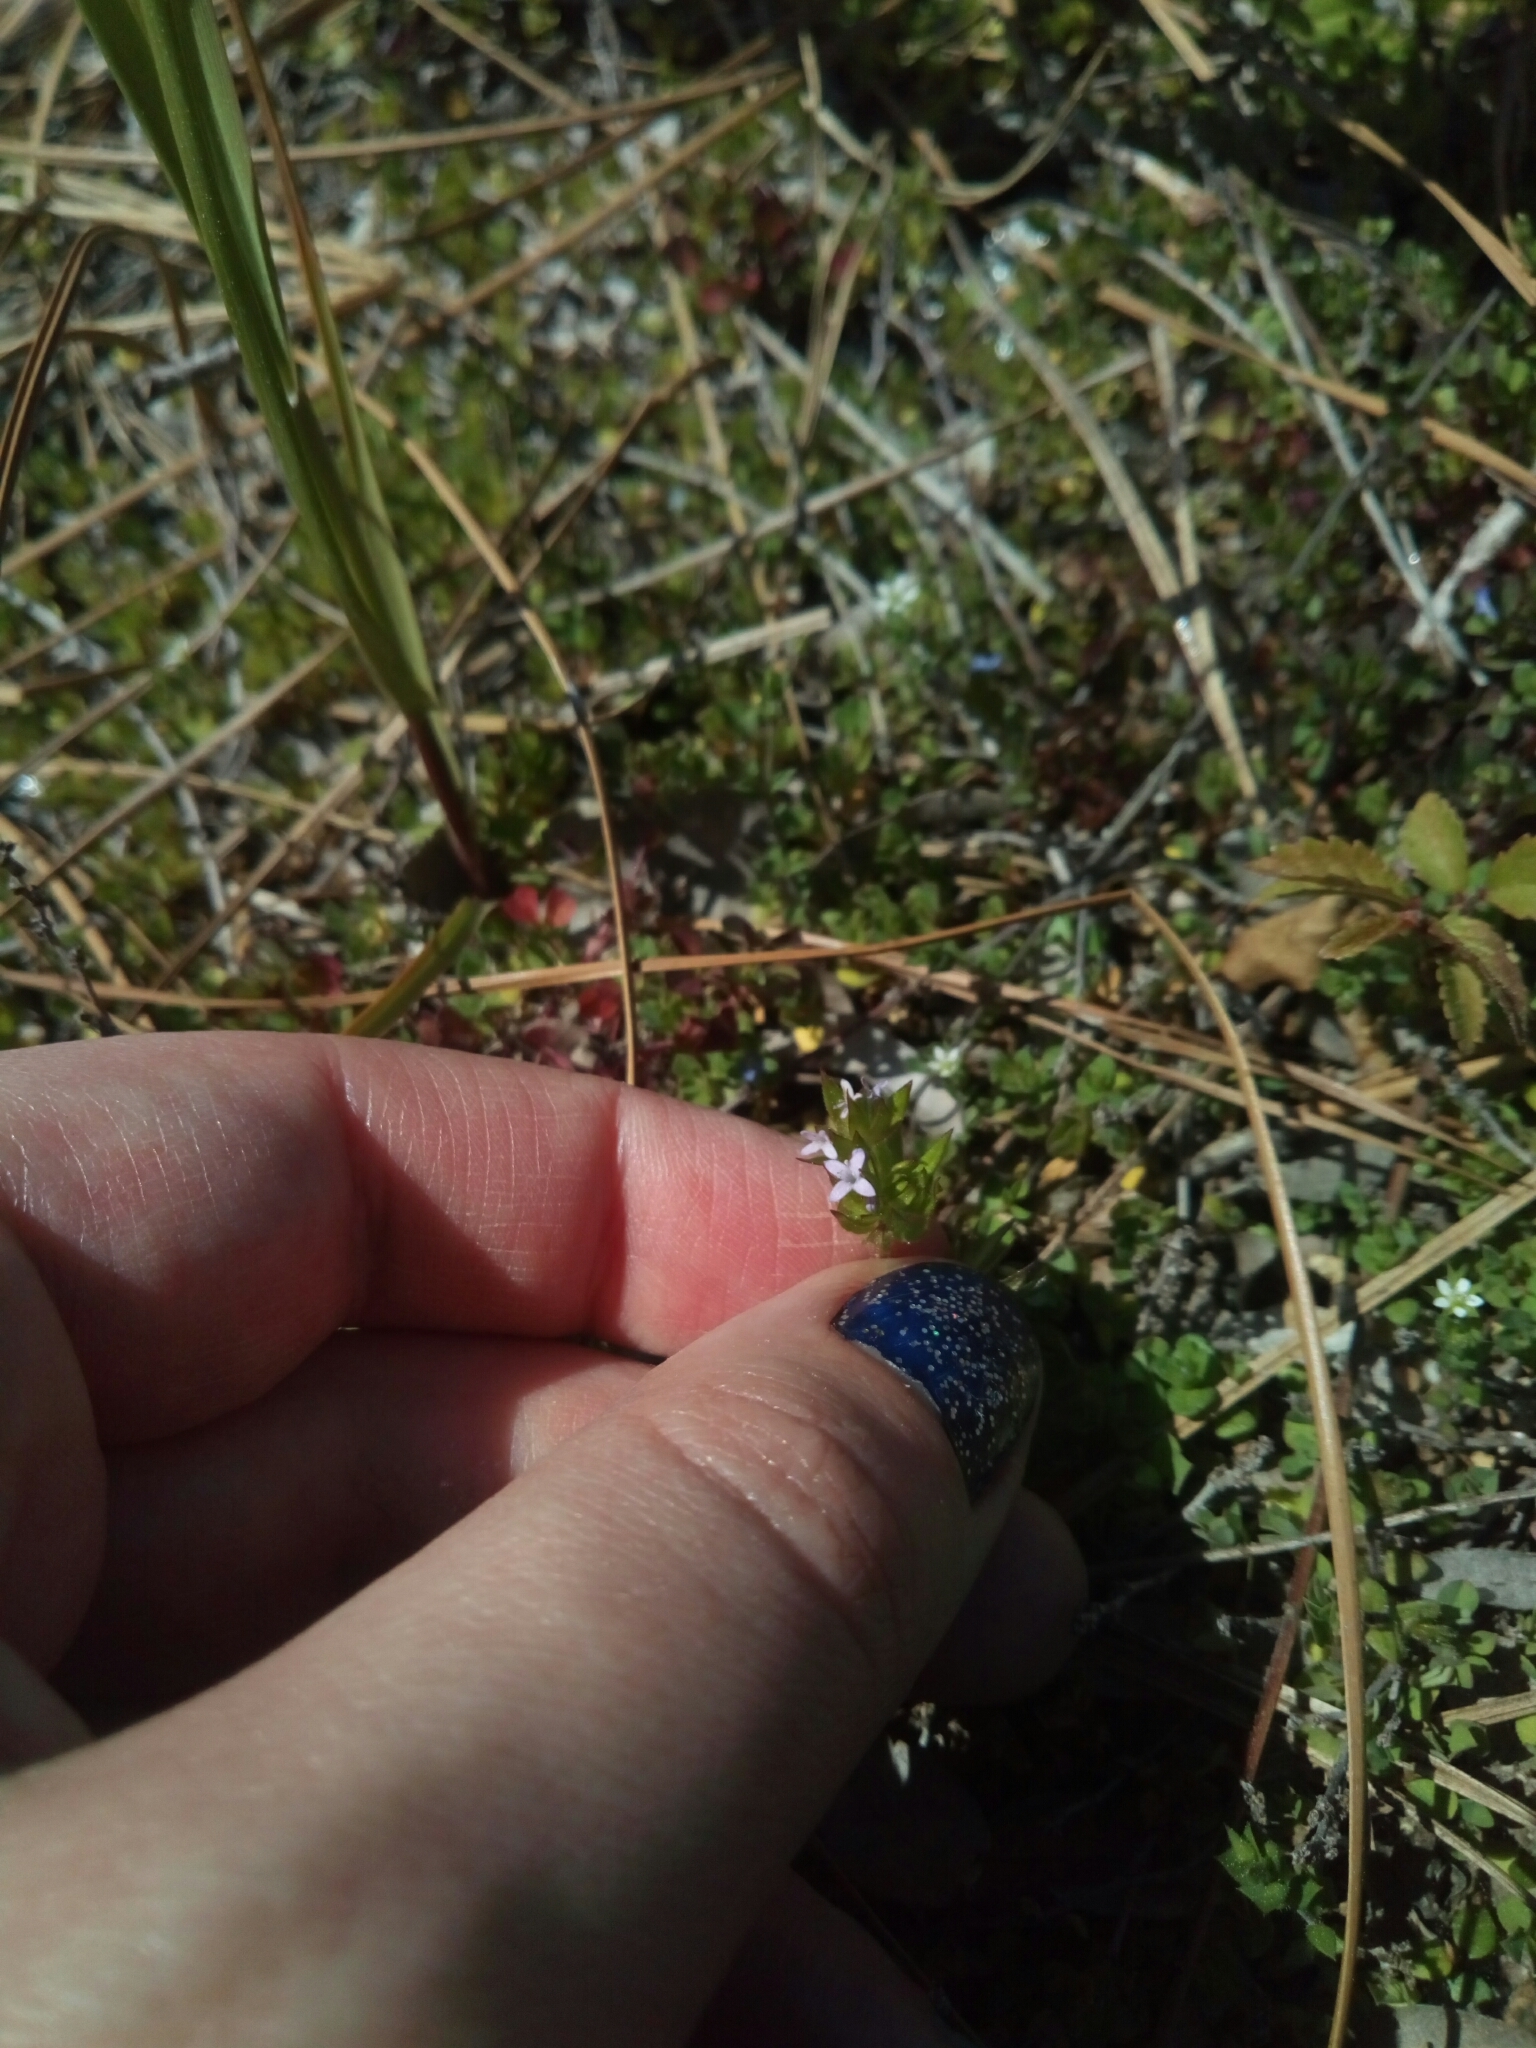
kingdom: Plantae
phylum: Tracheophyta
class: Magnoliopsida
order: Gentianales
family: Rubiaceae
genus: Sherardia
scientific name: Sherardia arvensis
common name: Field madder
